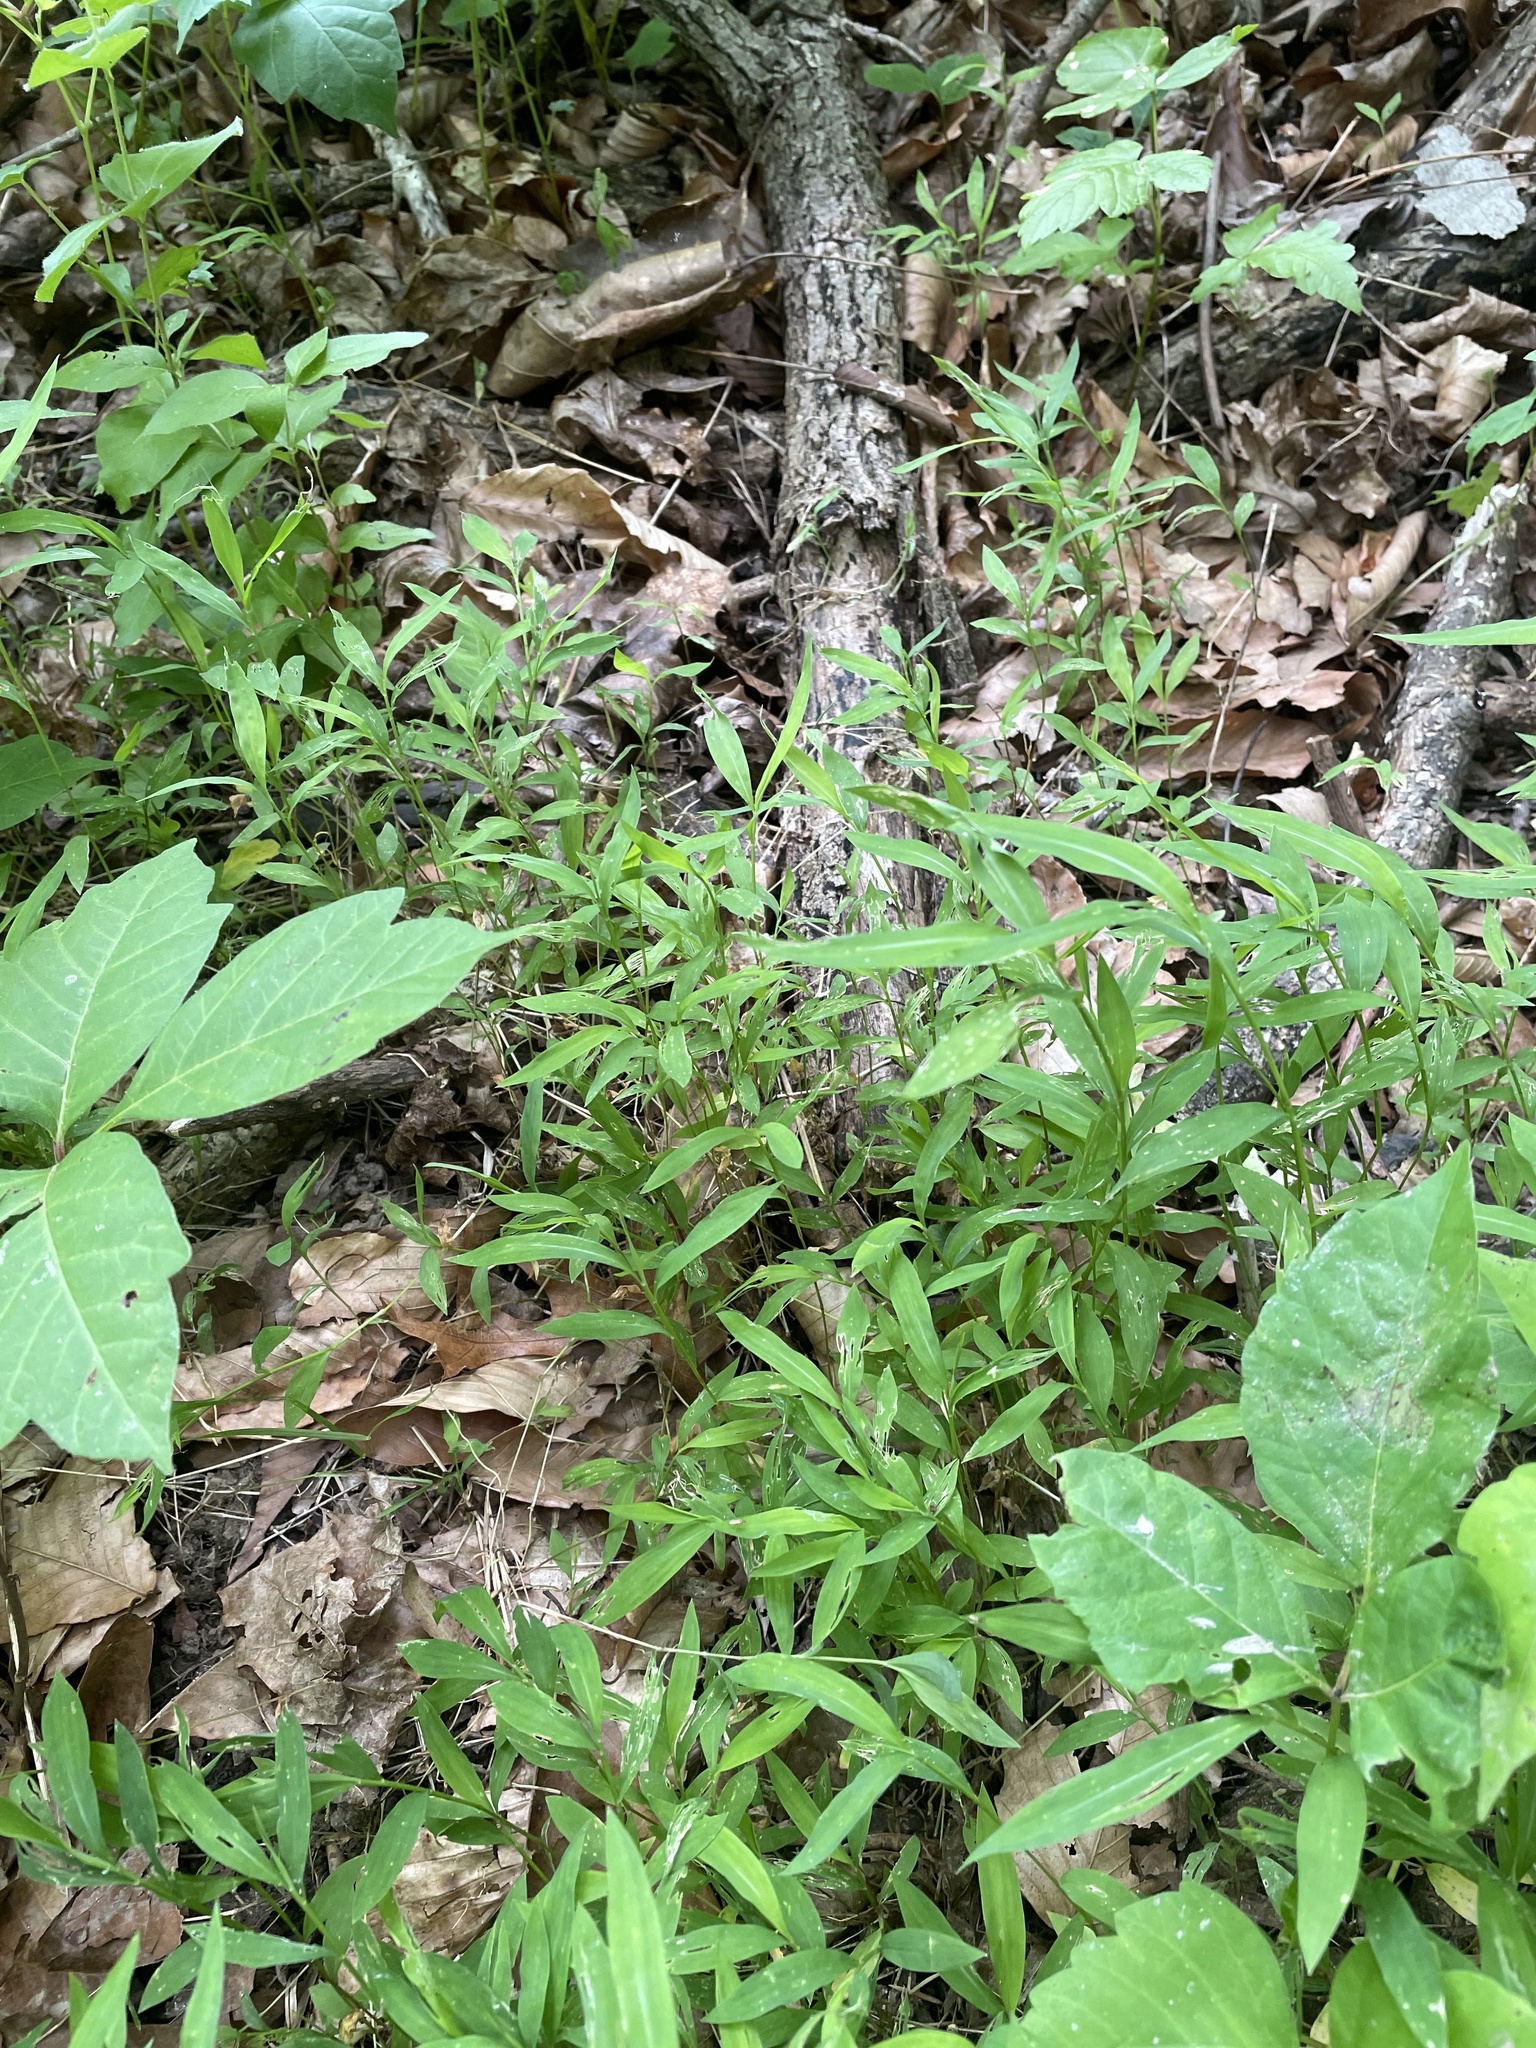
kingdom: Plantae
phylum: Tracheophyta
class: Liliopsida
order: Poales
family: Poaceae
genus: Microstegium
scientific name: Microstegium vimineum
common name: Japanese stiltgrass
